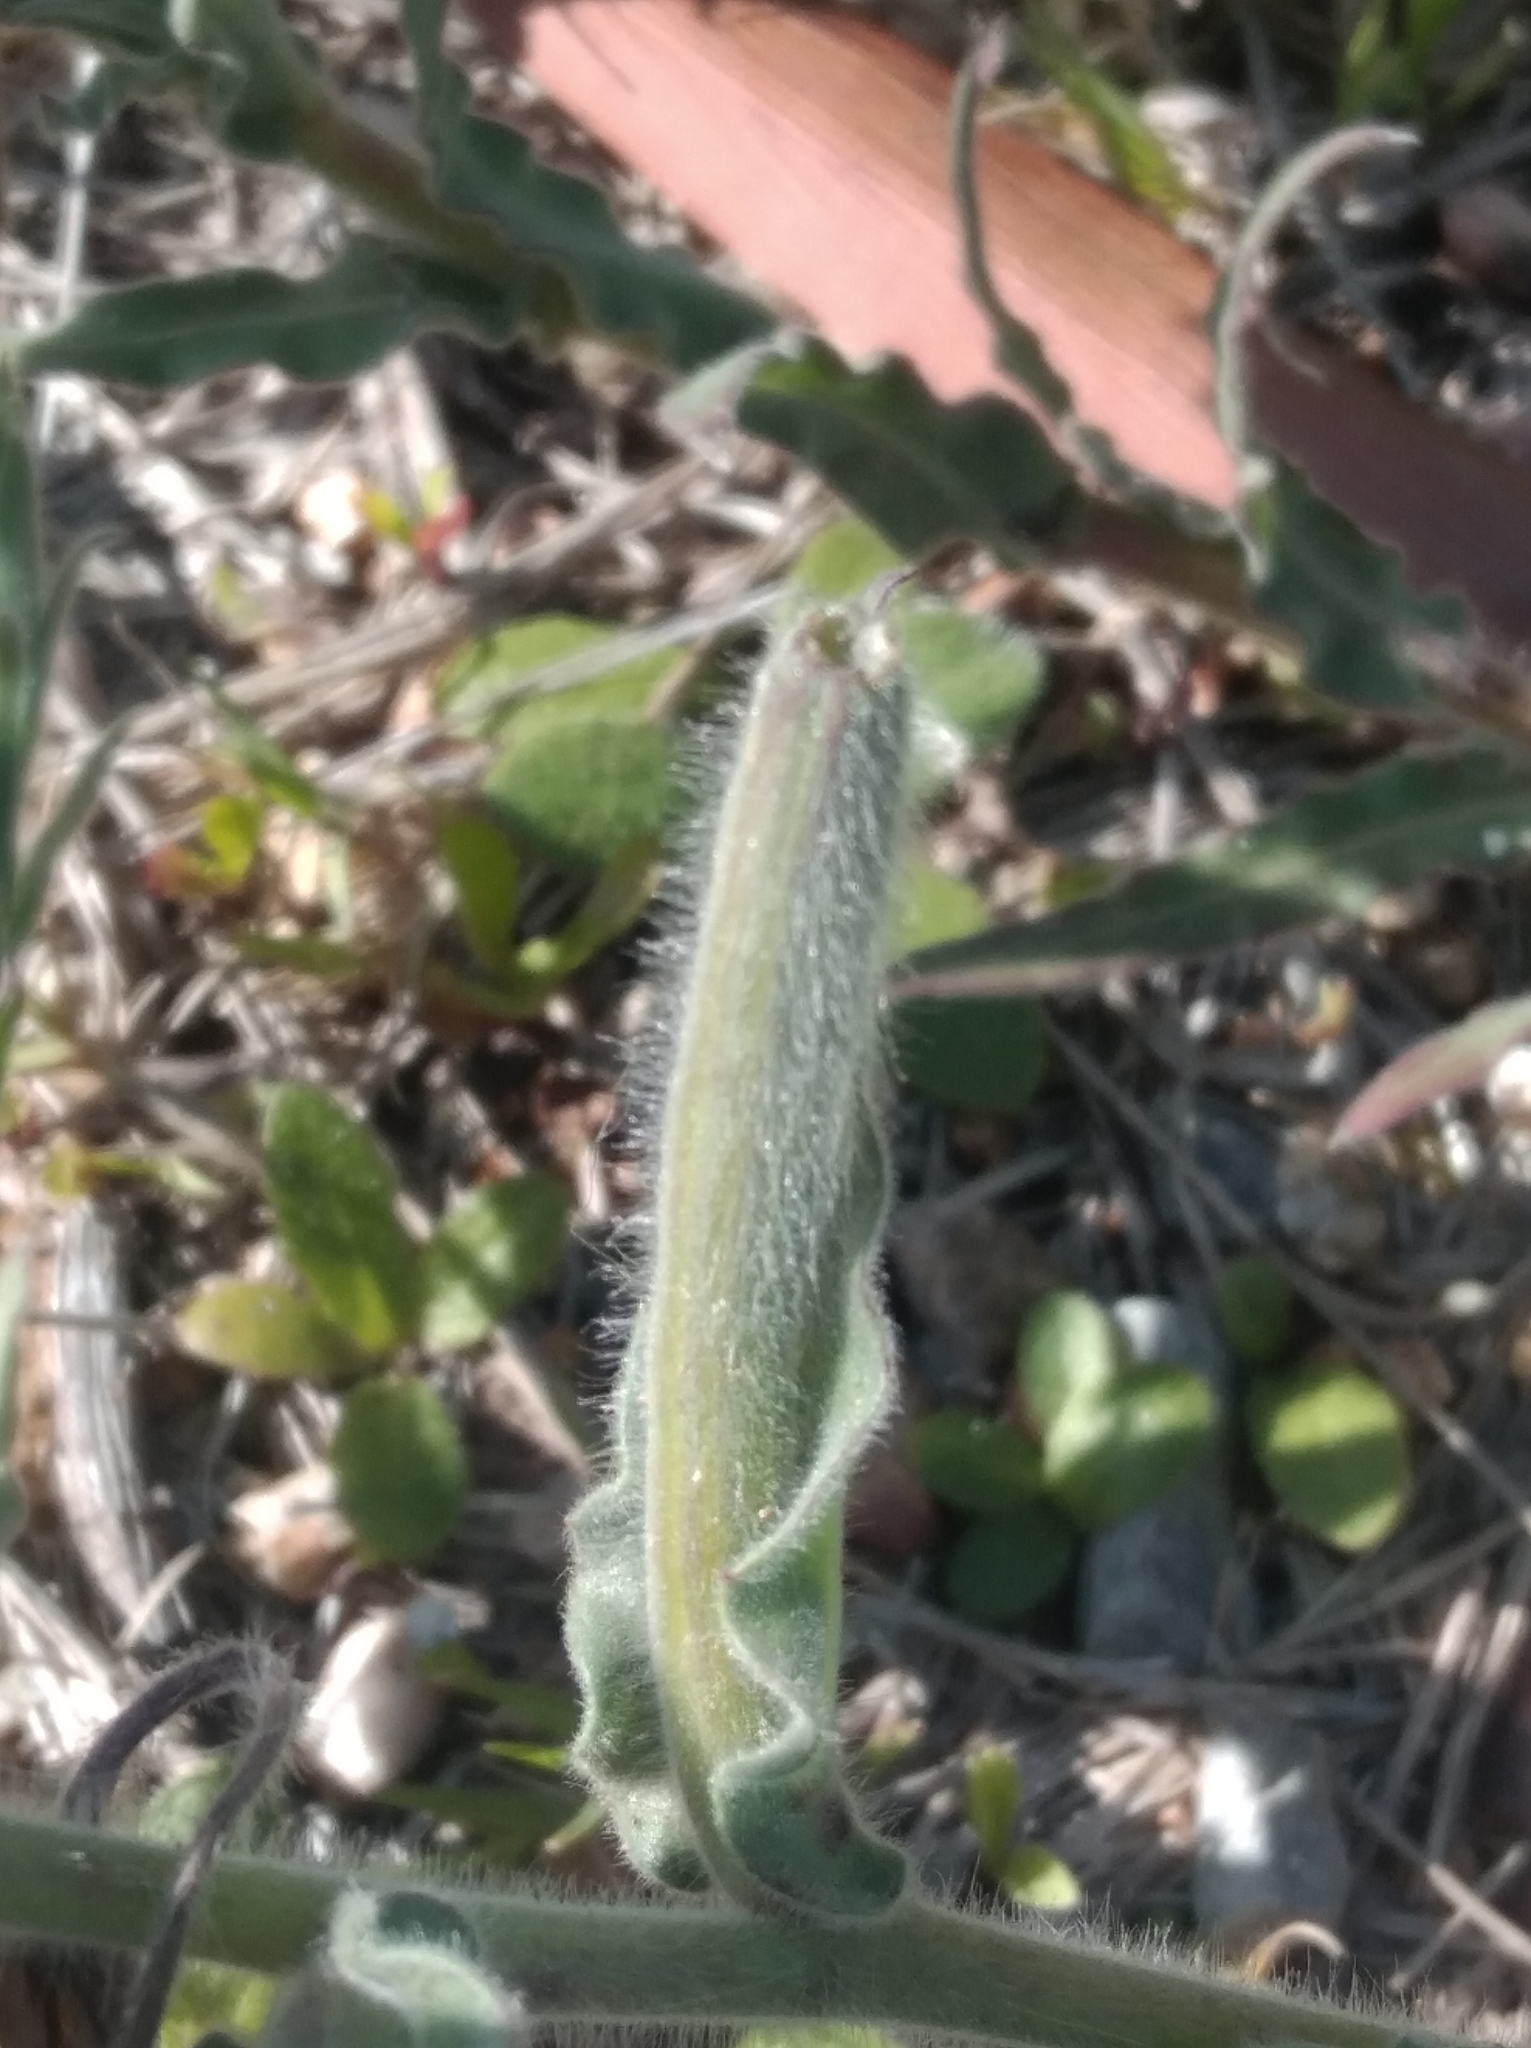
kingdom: Plantae
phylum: Tracheophyta
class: Magnoliopsida
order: Myrtales
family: Onagraceae
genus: Oenothera
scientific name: Oenothera mollissima
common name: Argentine evening primrose
